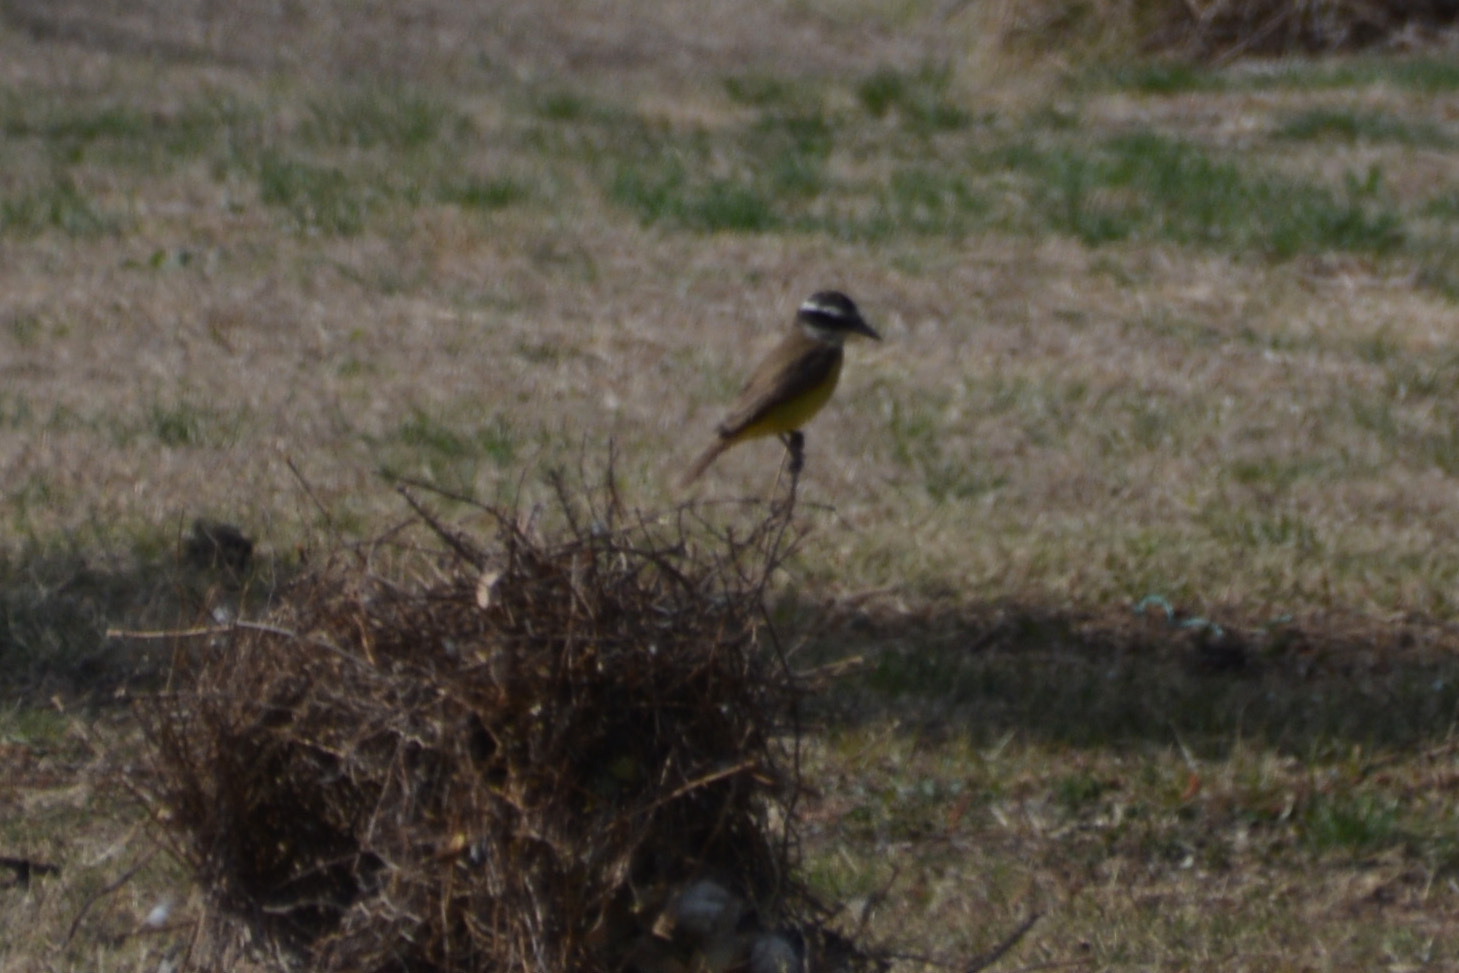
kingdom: Animalia
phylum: Chordata
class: Aves
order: Passeriformes
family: Tyrannidae
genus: Pitangus
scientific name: Pitangus sulphuratus
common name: Great kiskadee
